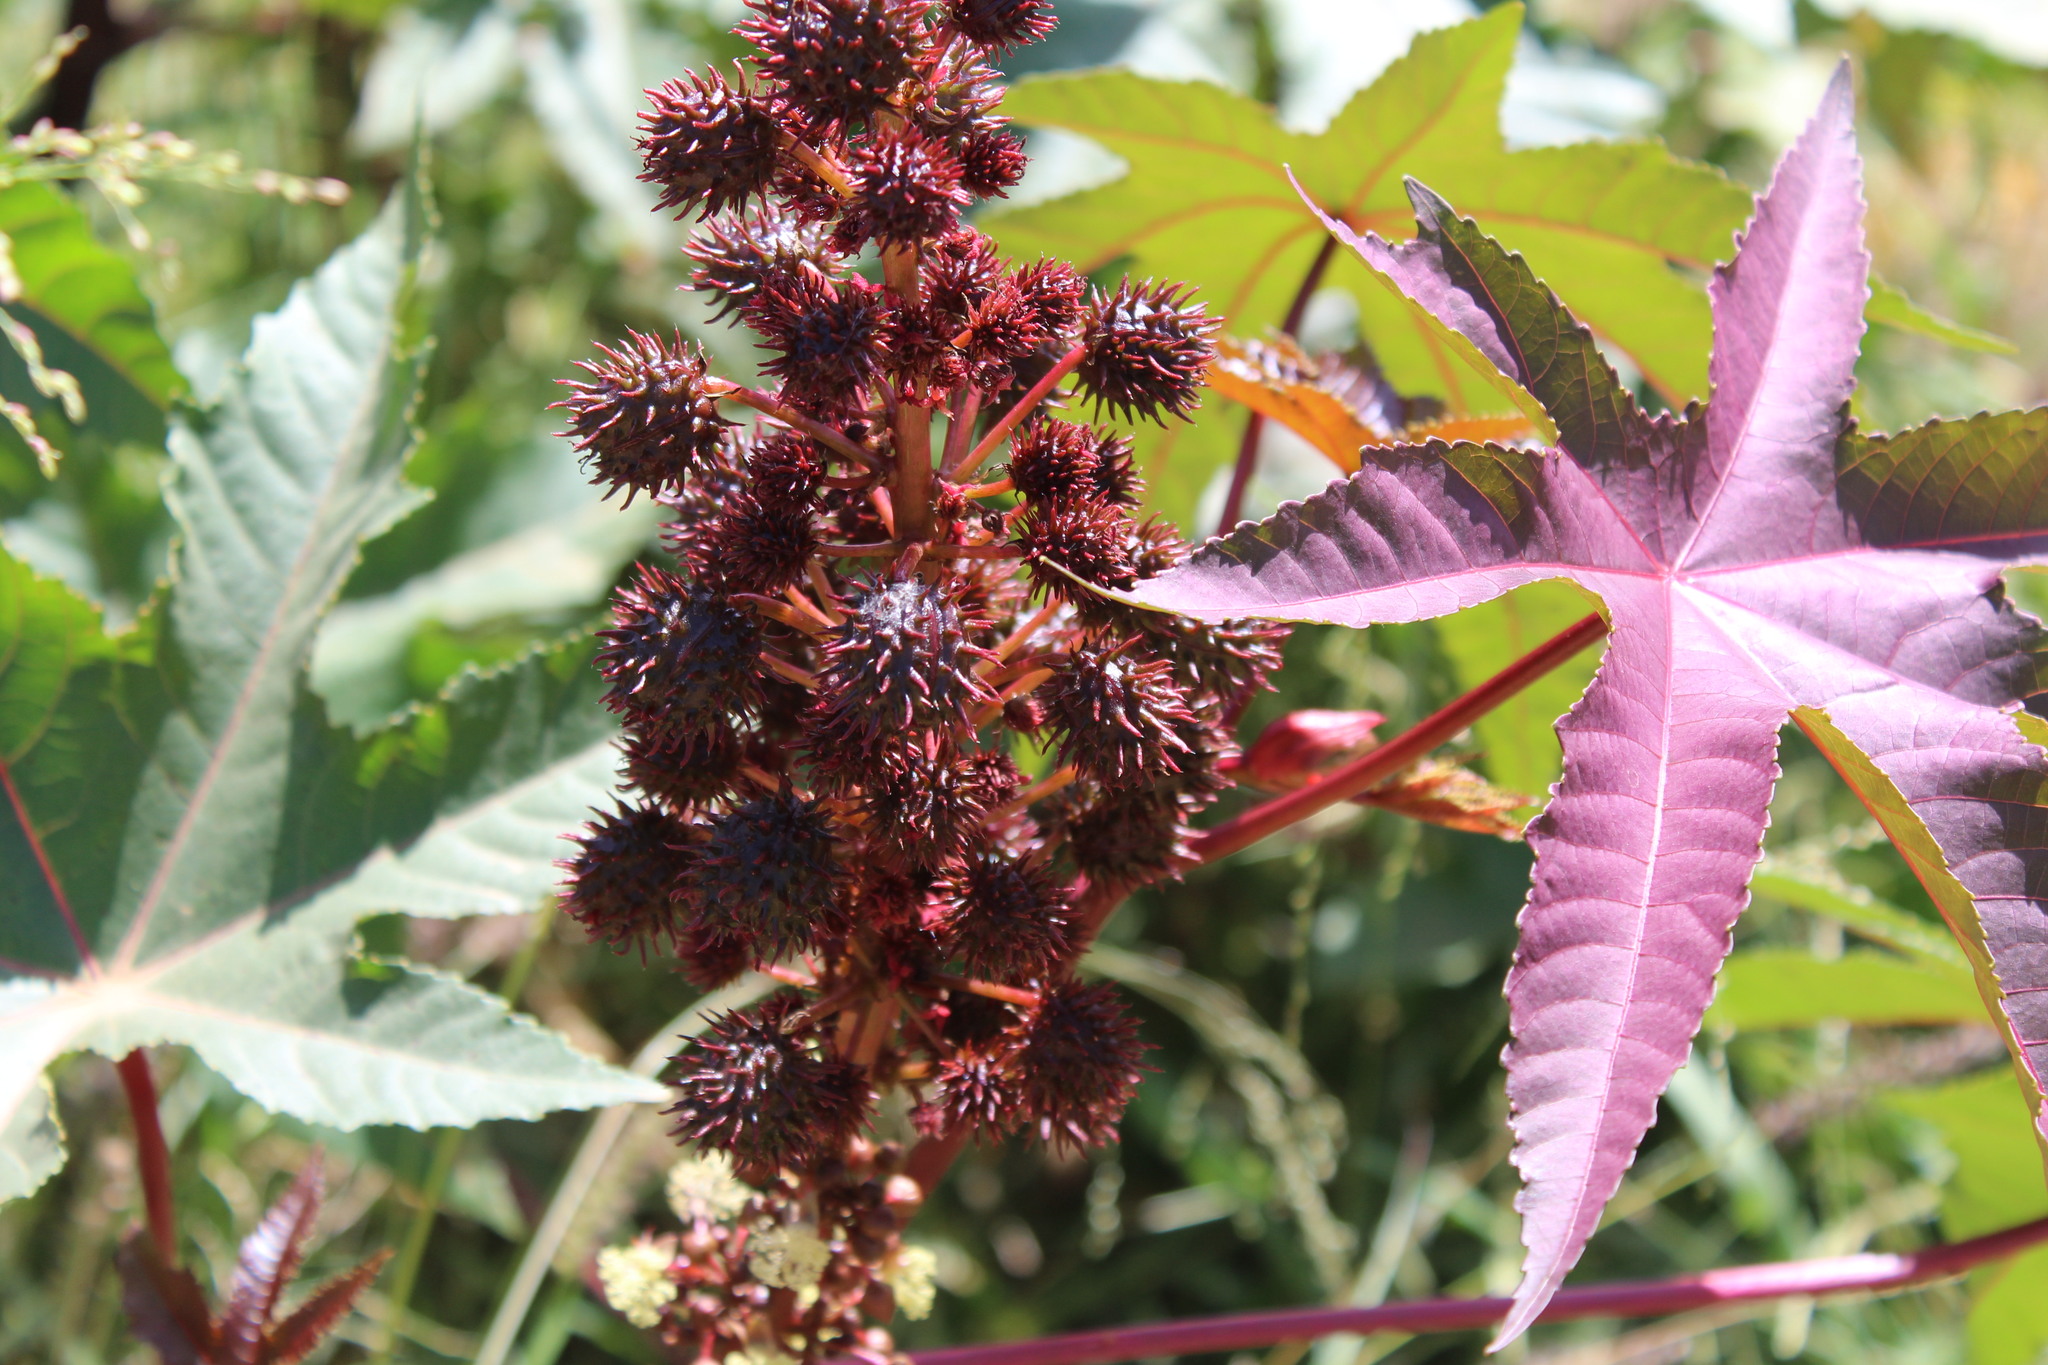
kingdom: Plantae
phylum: Tracheophyta
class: Magnoliopsida
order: Malpighiales
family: Euphorbiaceae
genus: Ricinus
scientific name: Ricinus communis
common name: Castor-oil-plant
